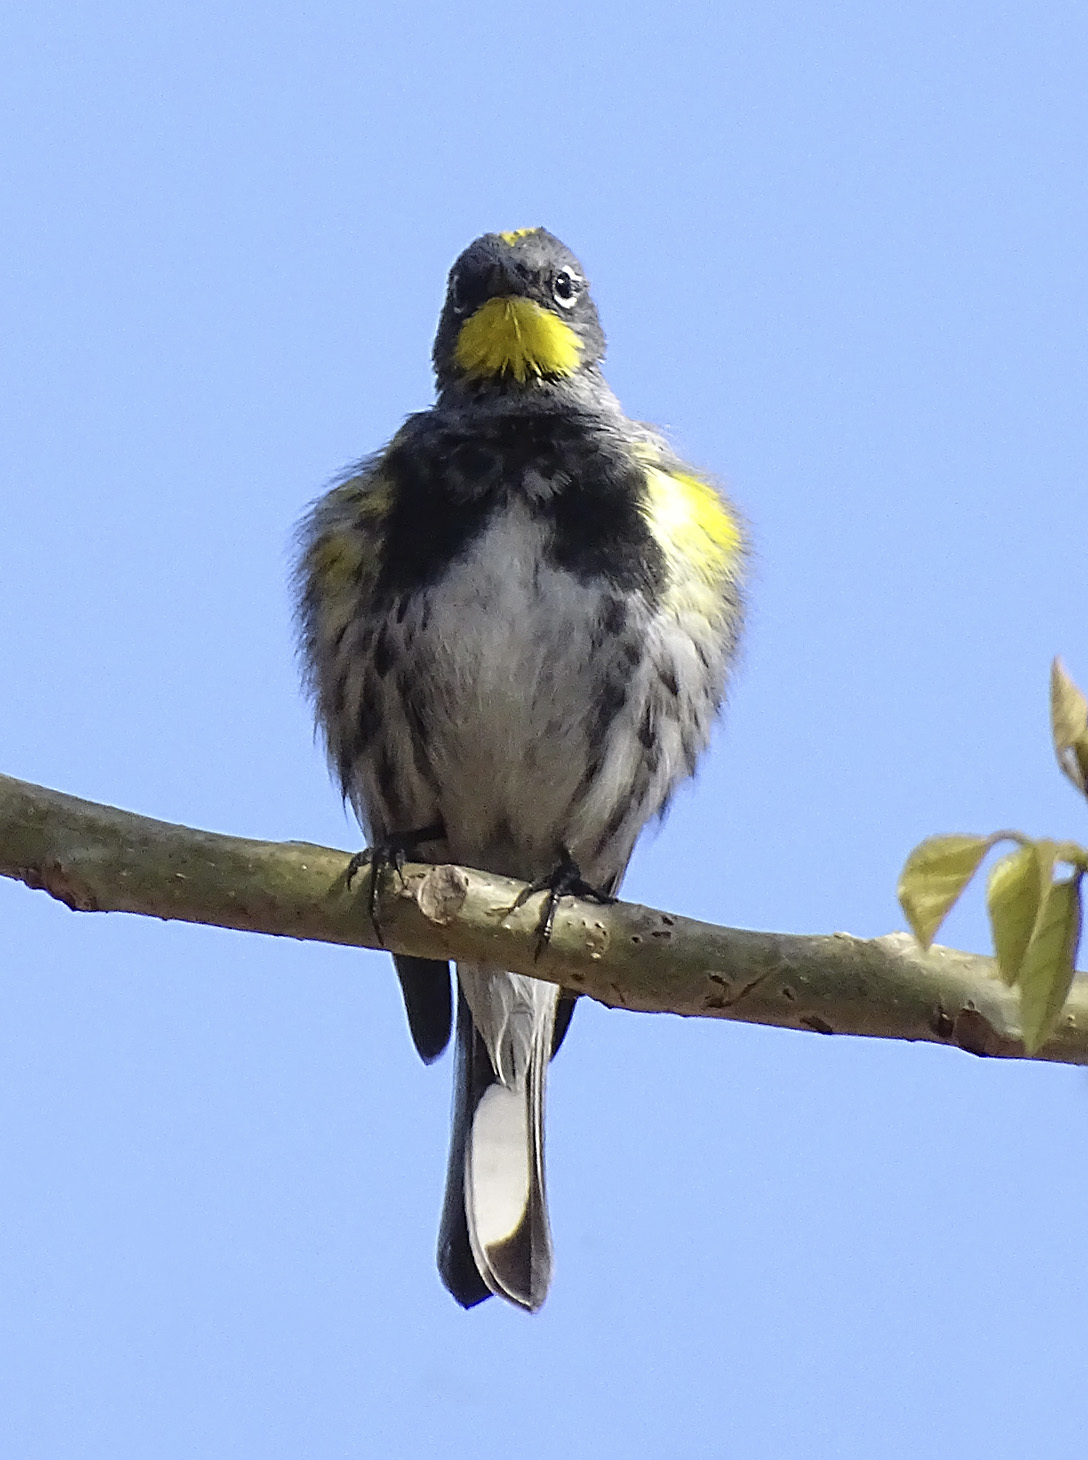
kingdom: Animalia
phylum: Chordata
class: Aves
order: Passeriformes
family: Parulidae
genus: Setophaga
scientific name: Setophaga auduboni
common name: Audubon's warbler
